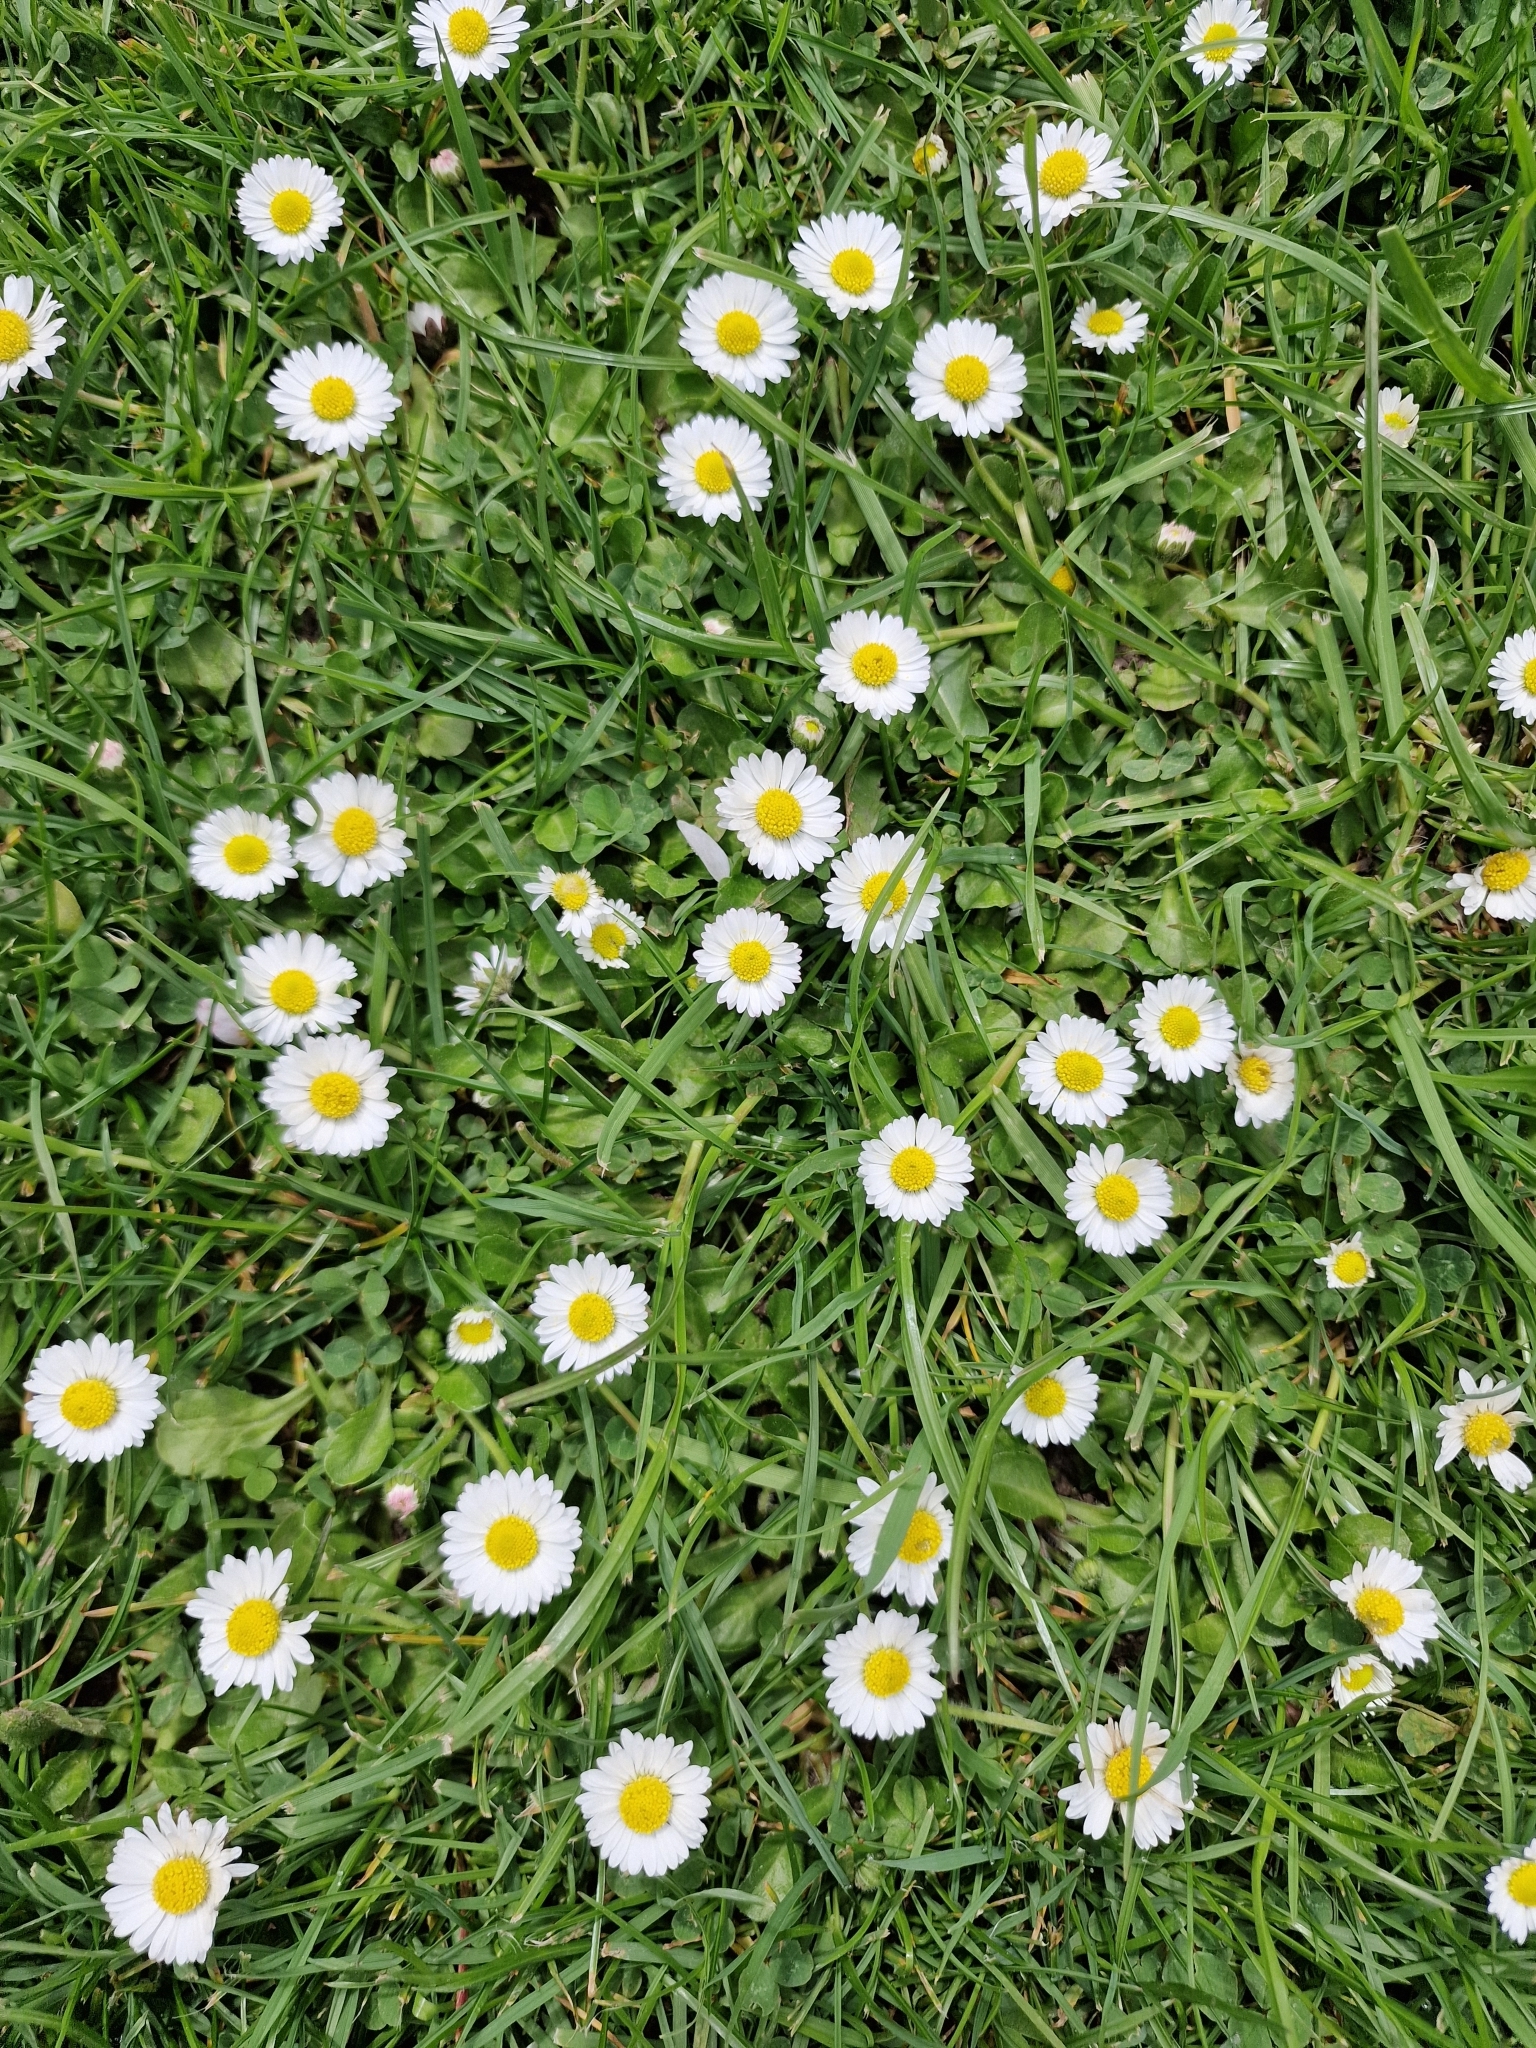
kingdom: Plantae
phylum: Tracheophyta
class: Magnoliopsida
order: Asterales
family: Asteraceae
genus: Bellis
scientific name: Bellis perennis
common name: Lawndaisy
